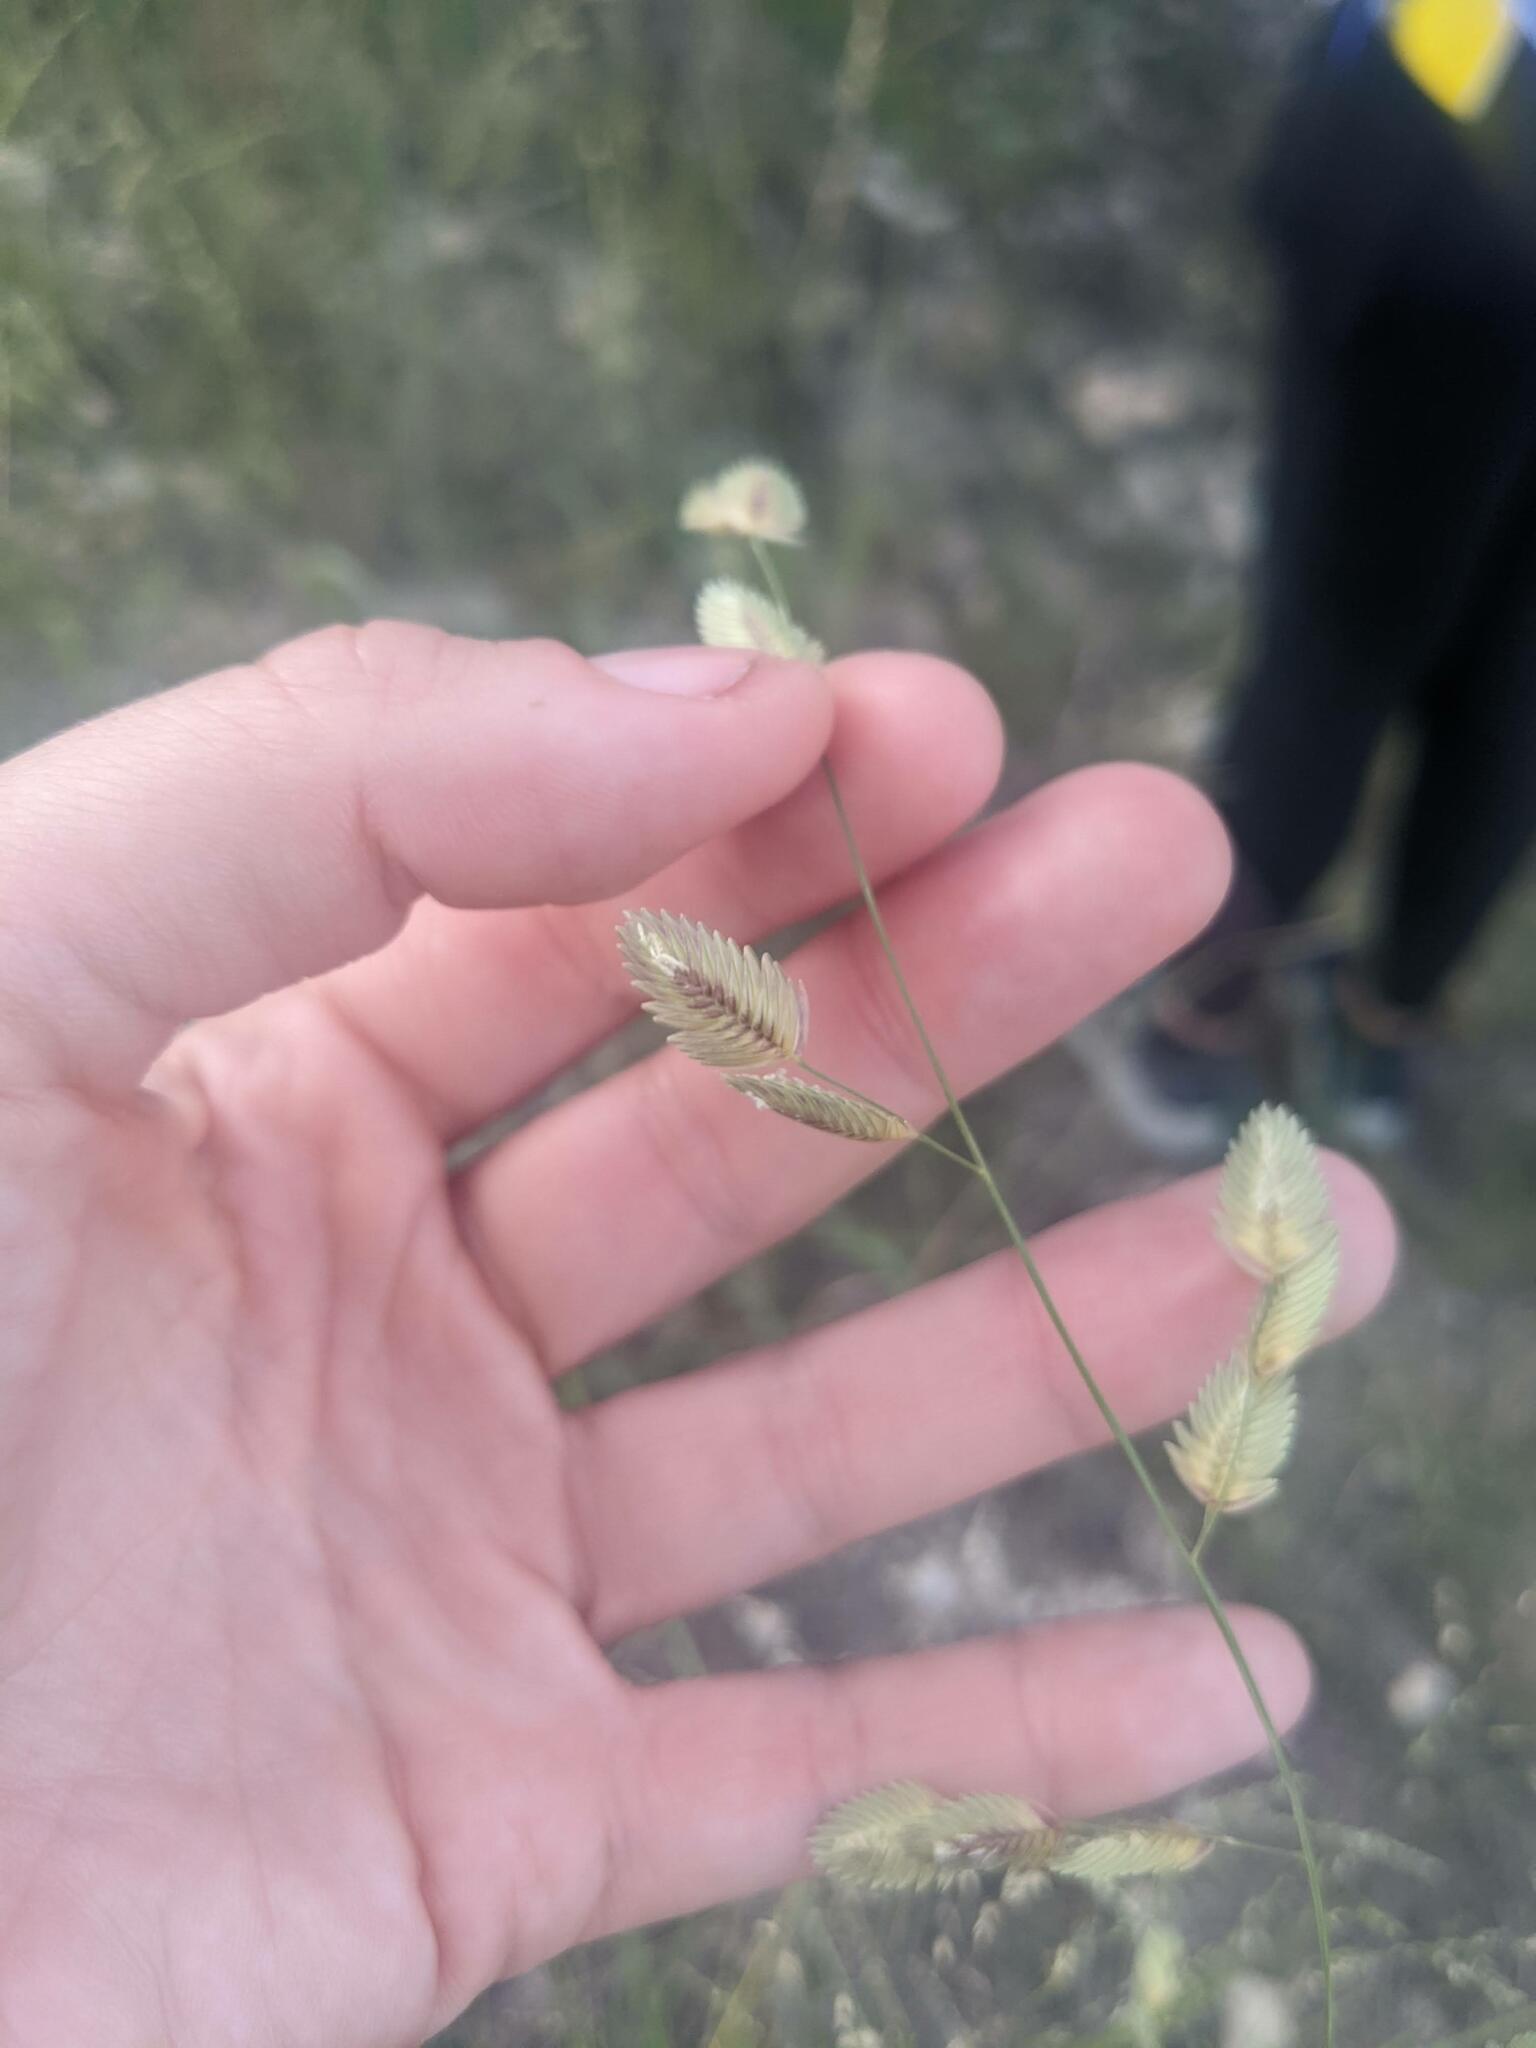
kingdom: Plantae
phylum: Tracheophyta
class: Liliopsida
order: Poales
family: Poaceae
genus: Eragrostis
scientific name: Eragrostis superba
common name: Wilman lovegrass
